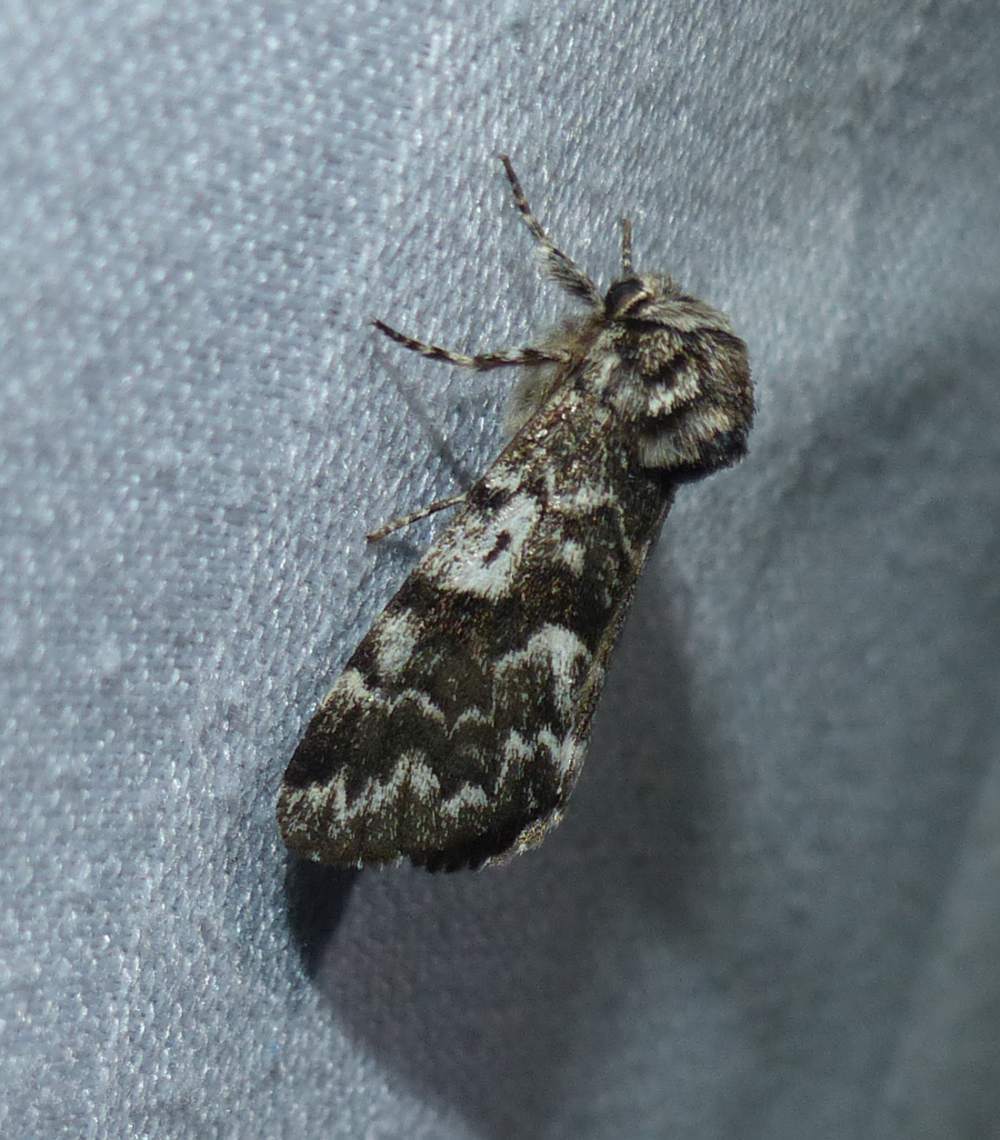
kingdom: Animalia
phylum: Arthropoda
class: Insecta
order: Lepidoptera
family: Noctuidae
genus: Panthea
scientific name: Panthea acronyctoides
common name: Black zigzag moth
